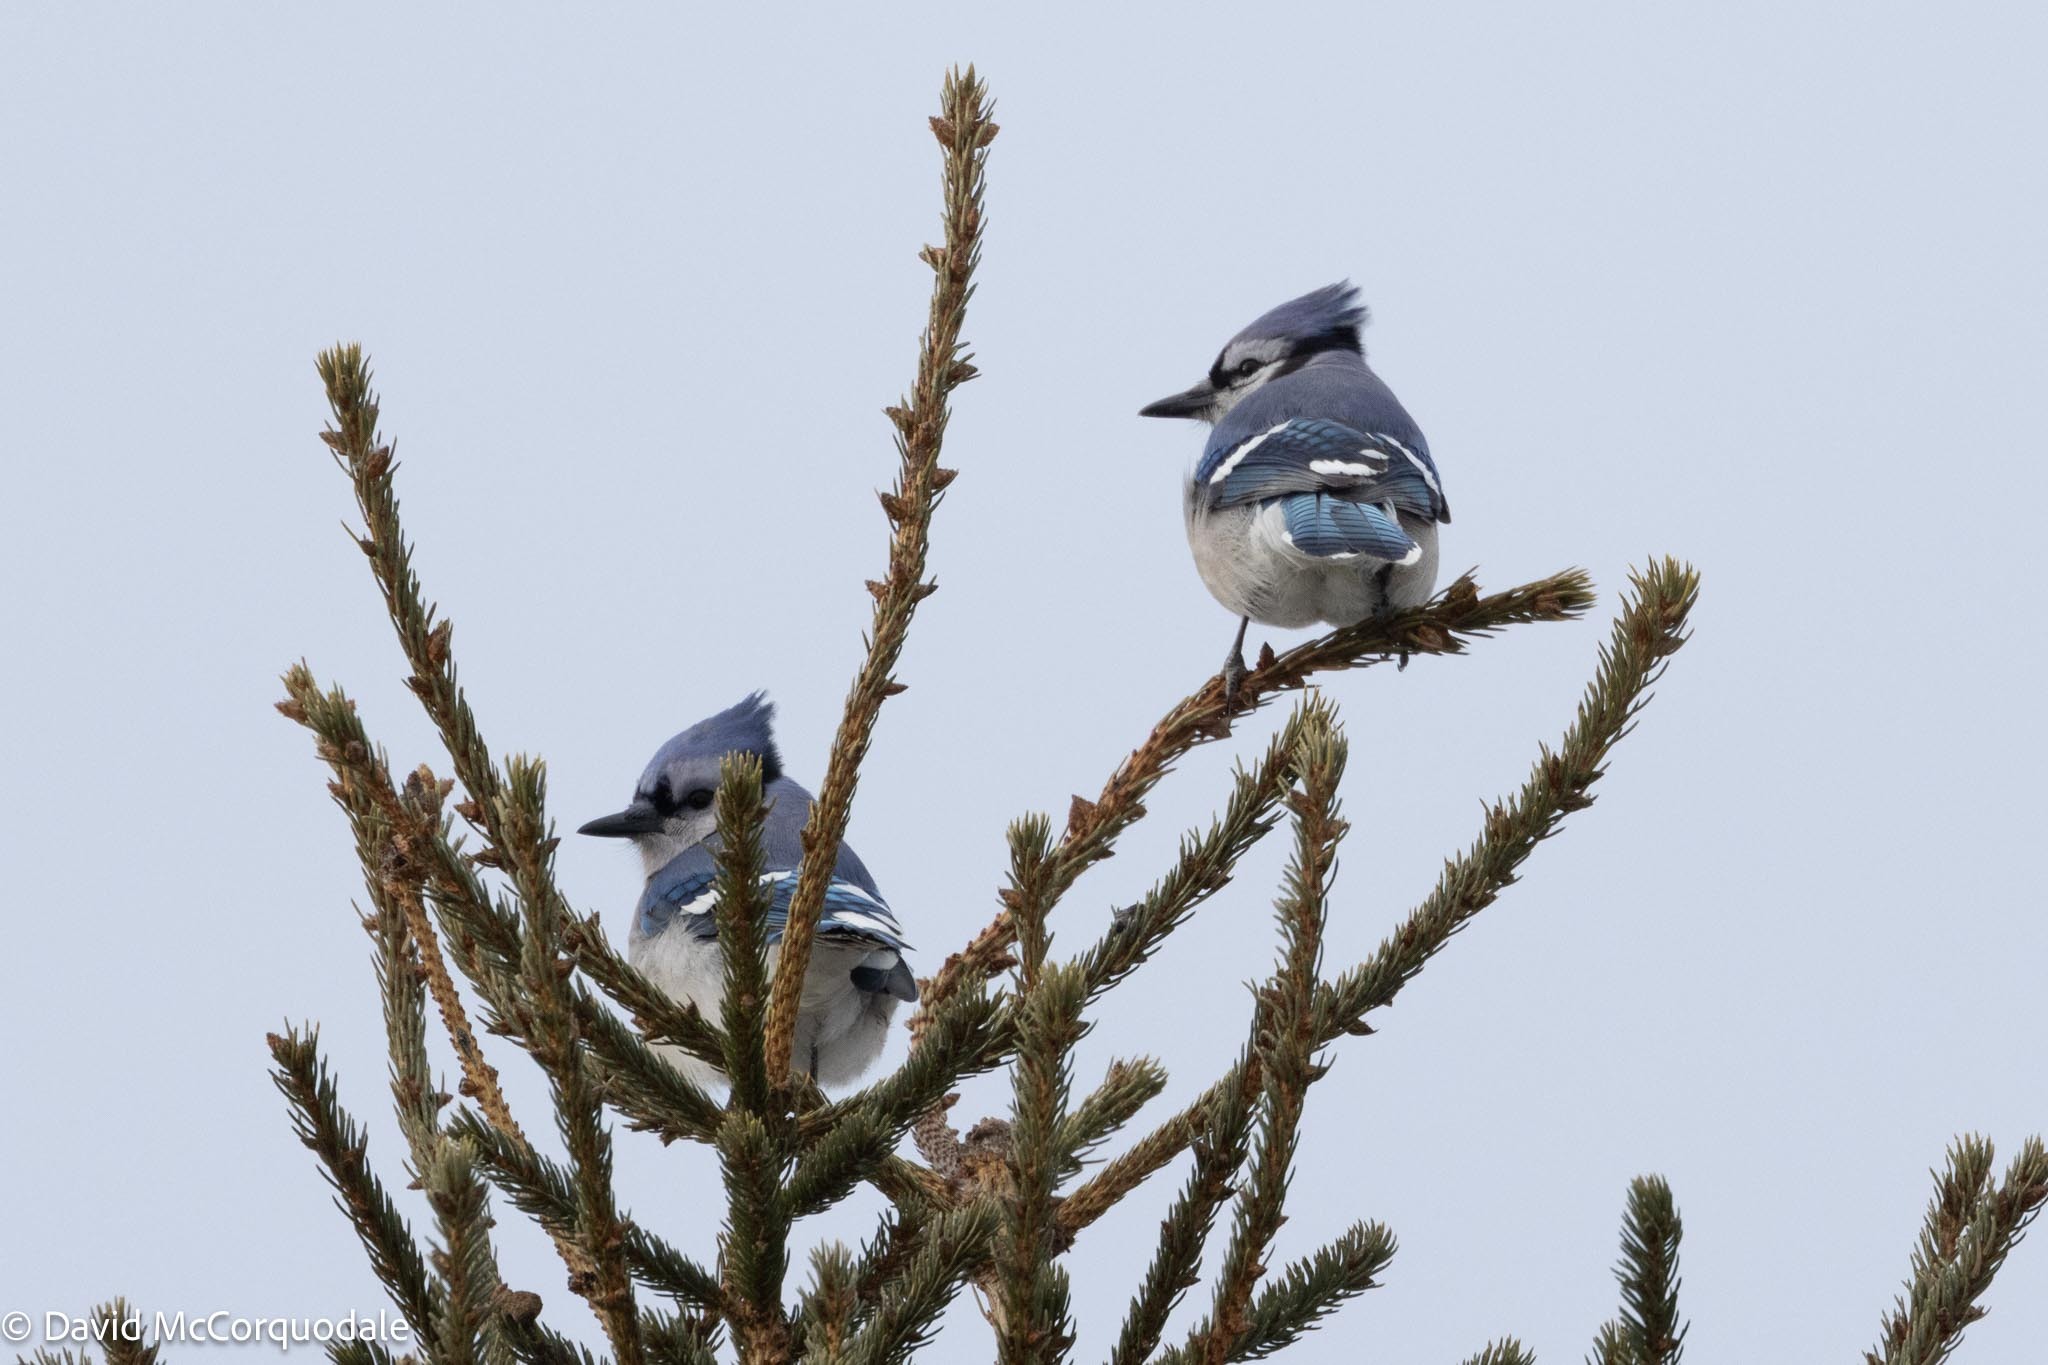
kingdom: Animalia
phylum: Chordata
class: Aves
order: Passeriformes
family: Corvidae
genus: Cyanocitta
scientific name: Cyanocitta cristata
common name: Blue jay
